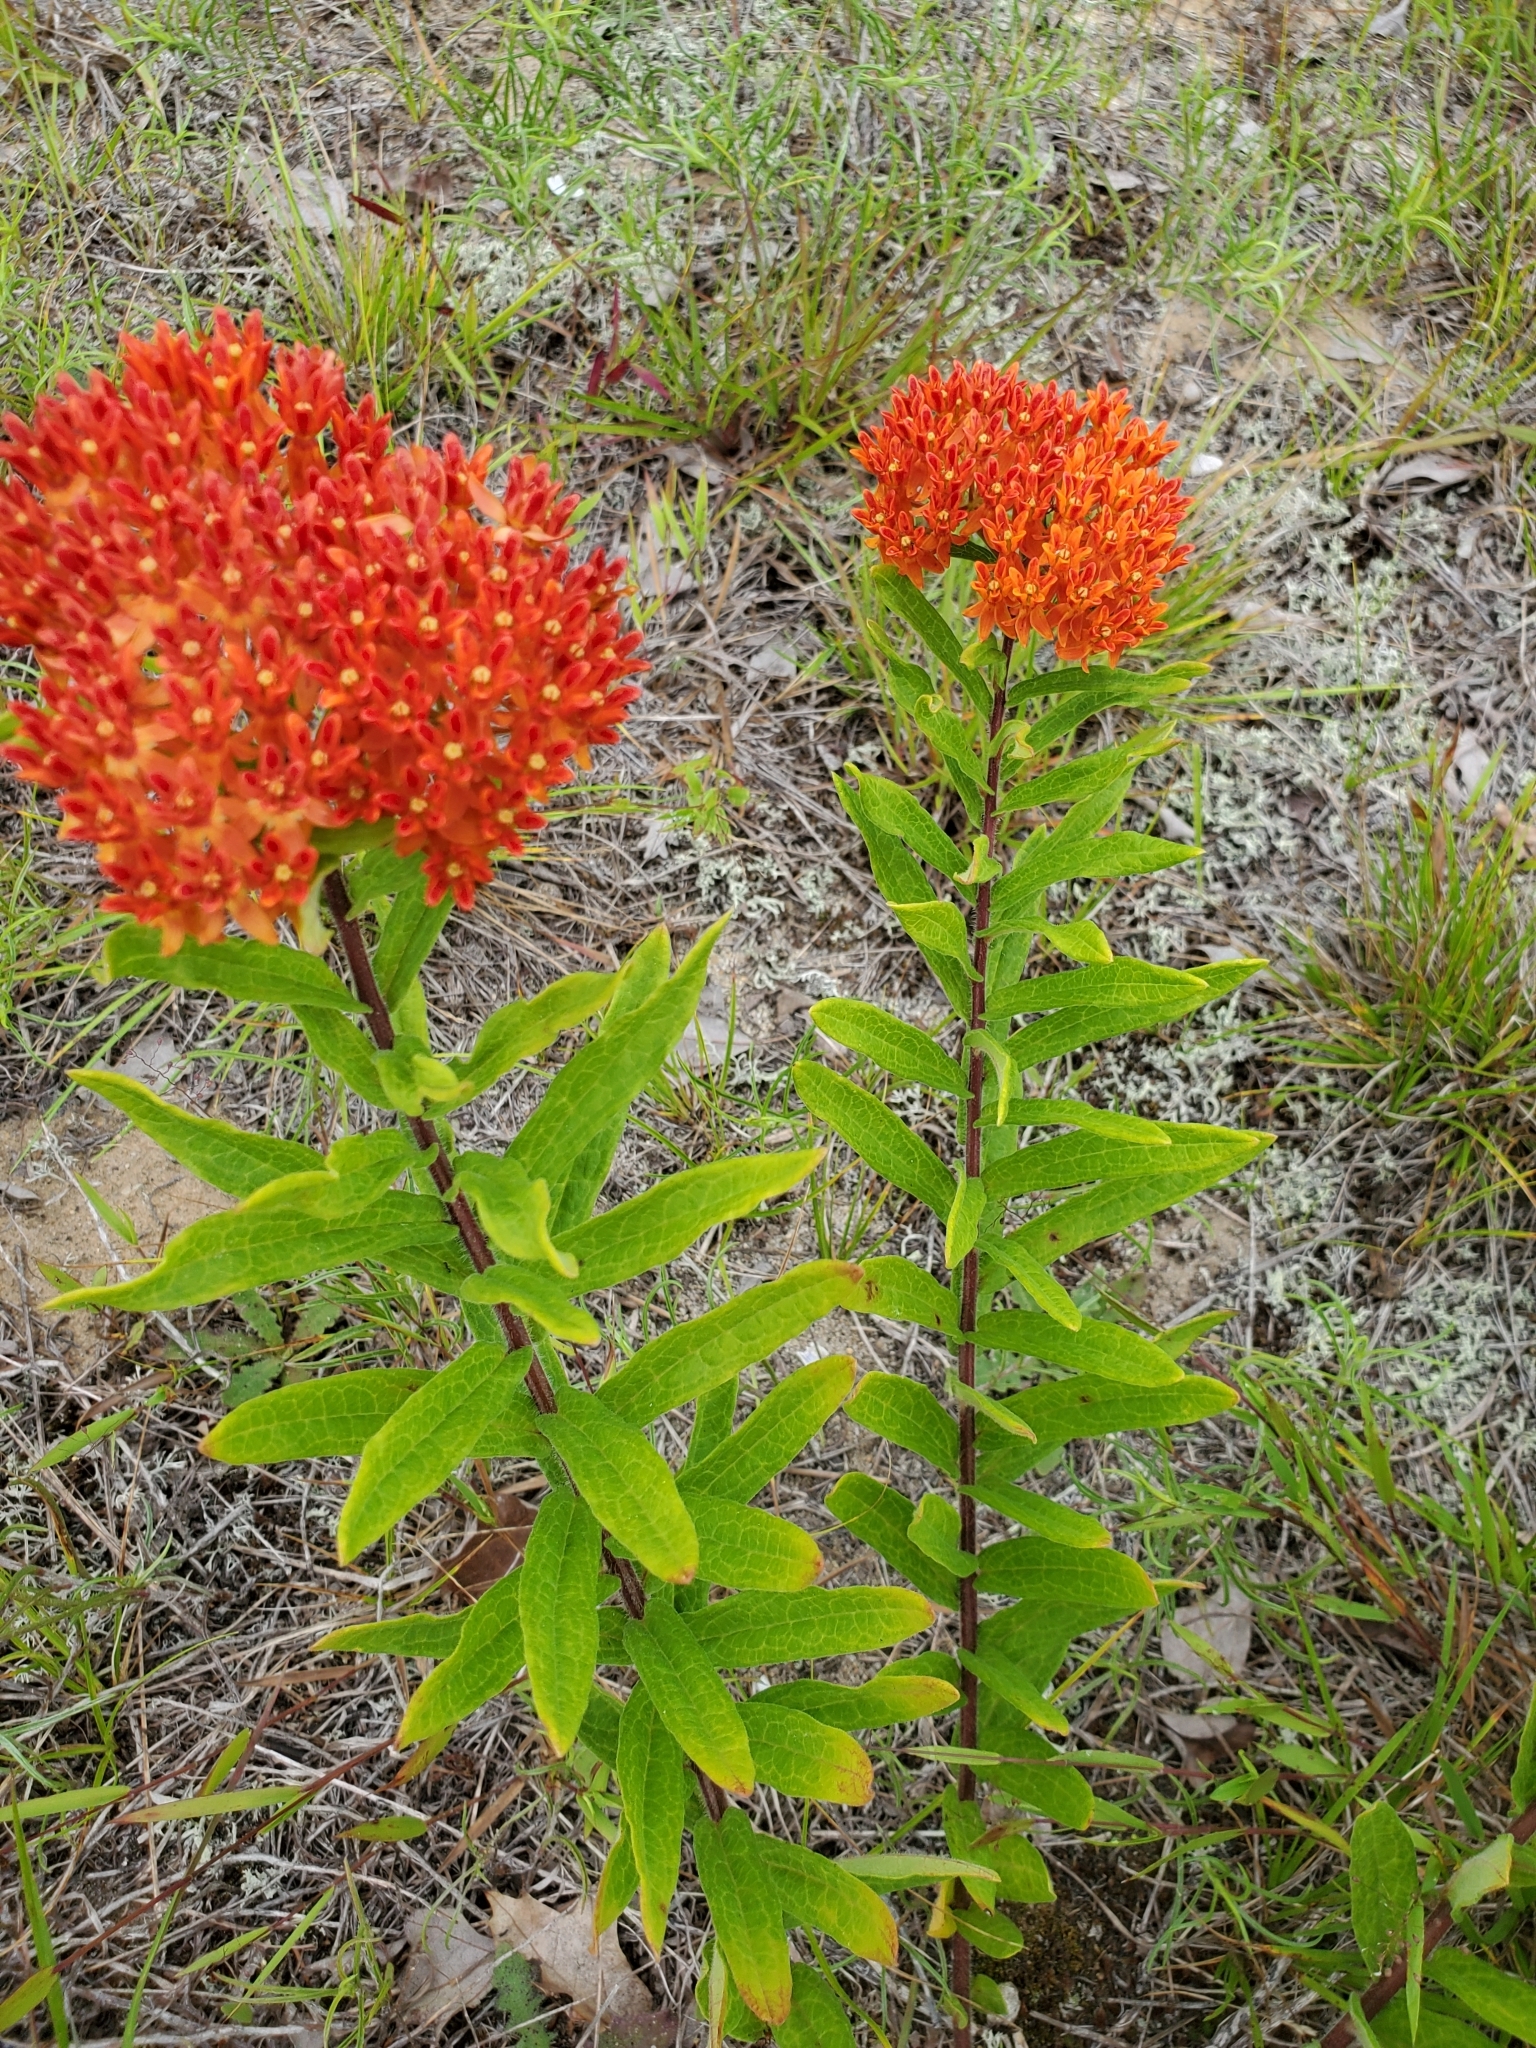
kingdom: Plantae
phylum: Tracheophyta
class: Magnoliopsida
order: Gentianales
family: Apocynaceae
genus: Asclepias
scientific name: Asclepias tuberosa
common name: Butterfly milkweed
